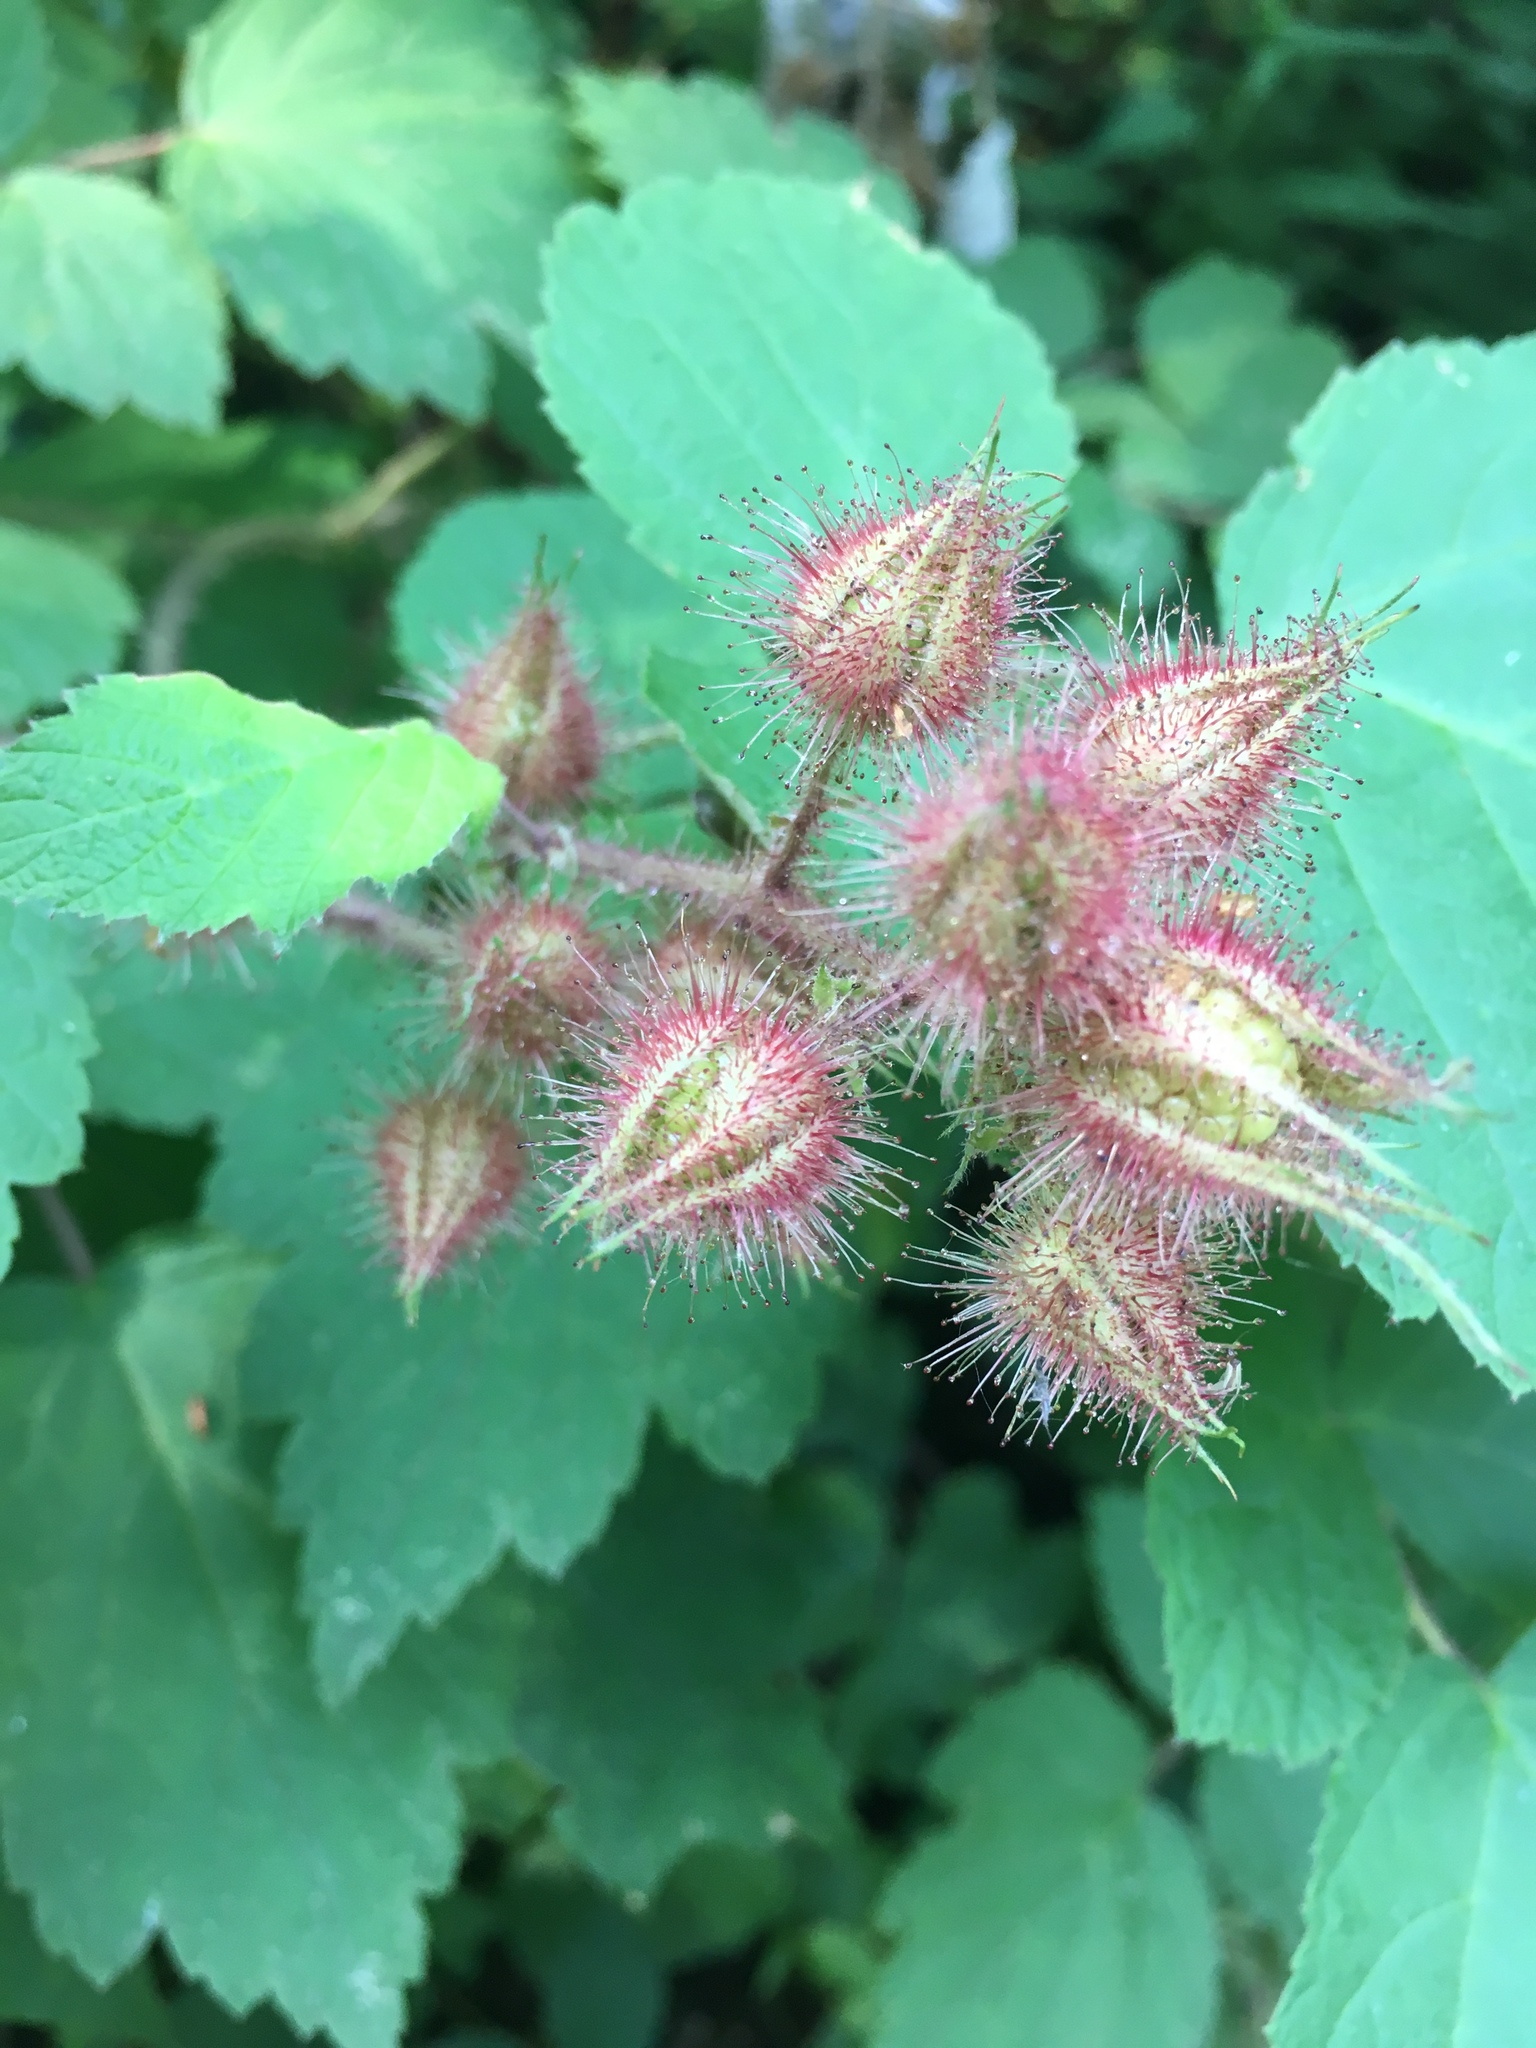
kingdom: Plantae
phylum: Tracheophyta
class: Magnoliopsida
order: Rosales
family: Rosaceae
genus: Rubus
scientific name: Rubus phoenicolasius
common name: Japanese wineberry
